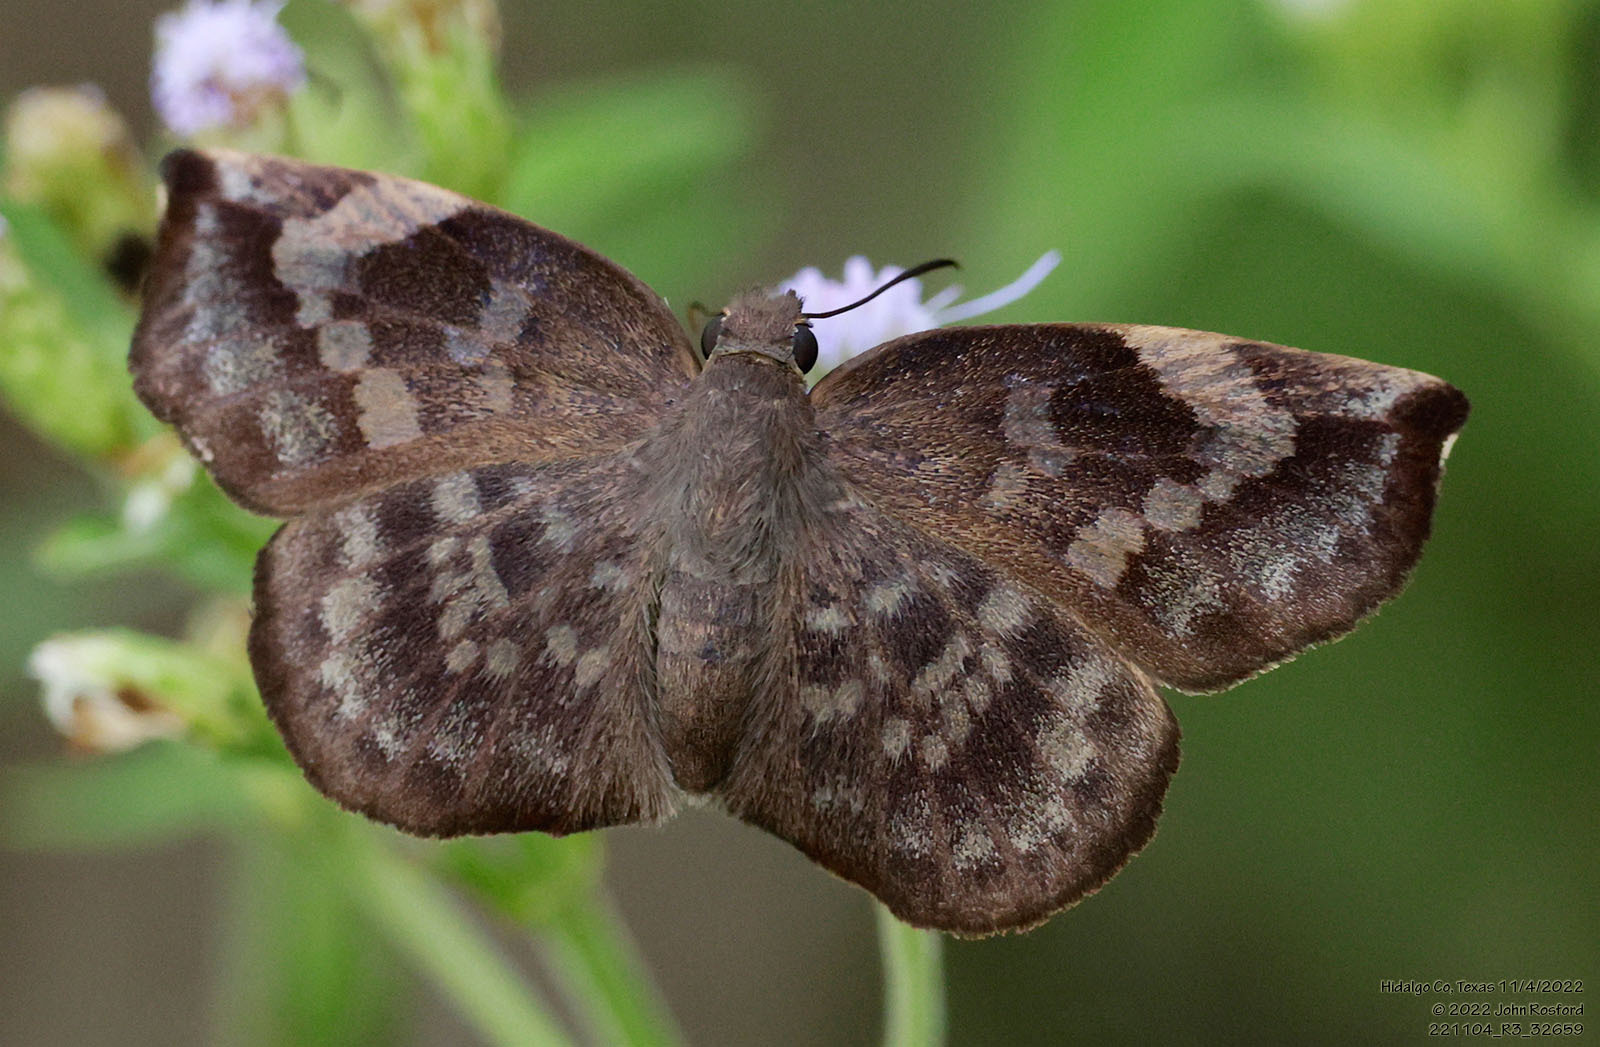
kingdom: Animalia
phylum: Arthropoda
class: Insecta
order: Lepidoptera
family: Hesperiidae
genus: Achlyodes
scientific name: Achlyodes thraso
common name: Sickle-winged skipper
